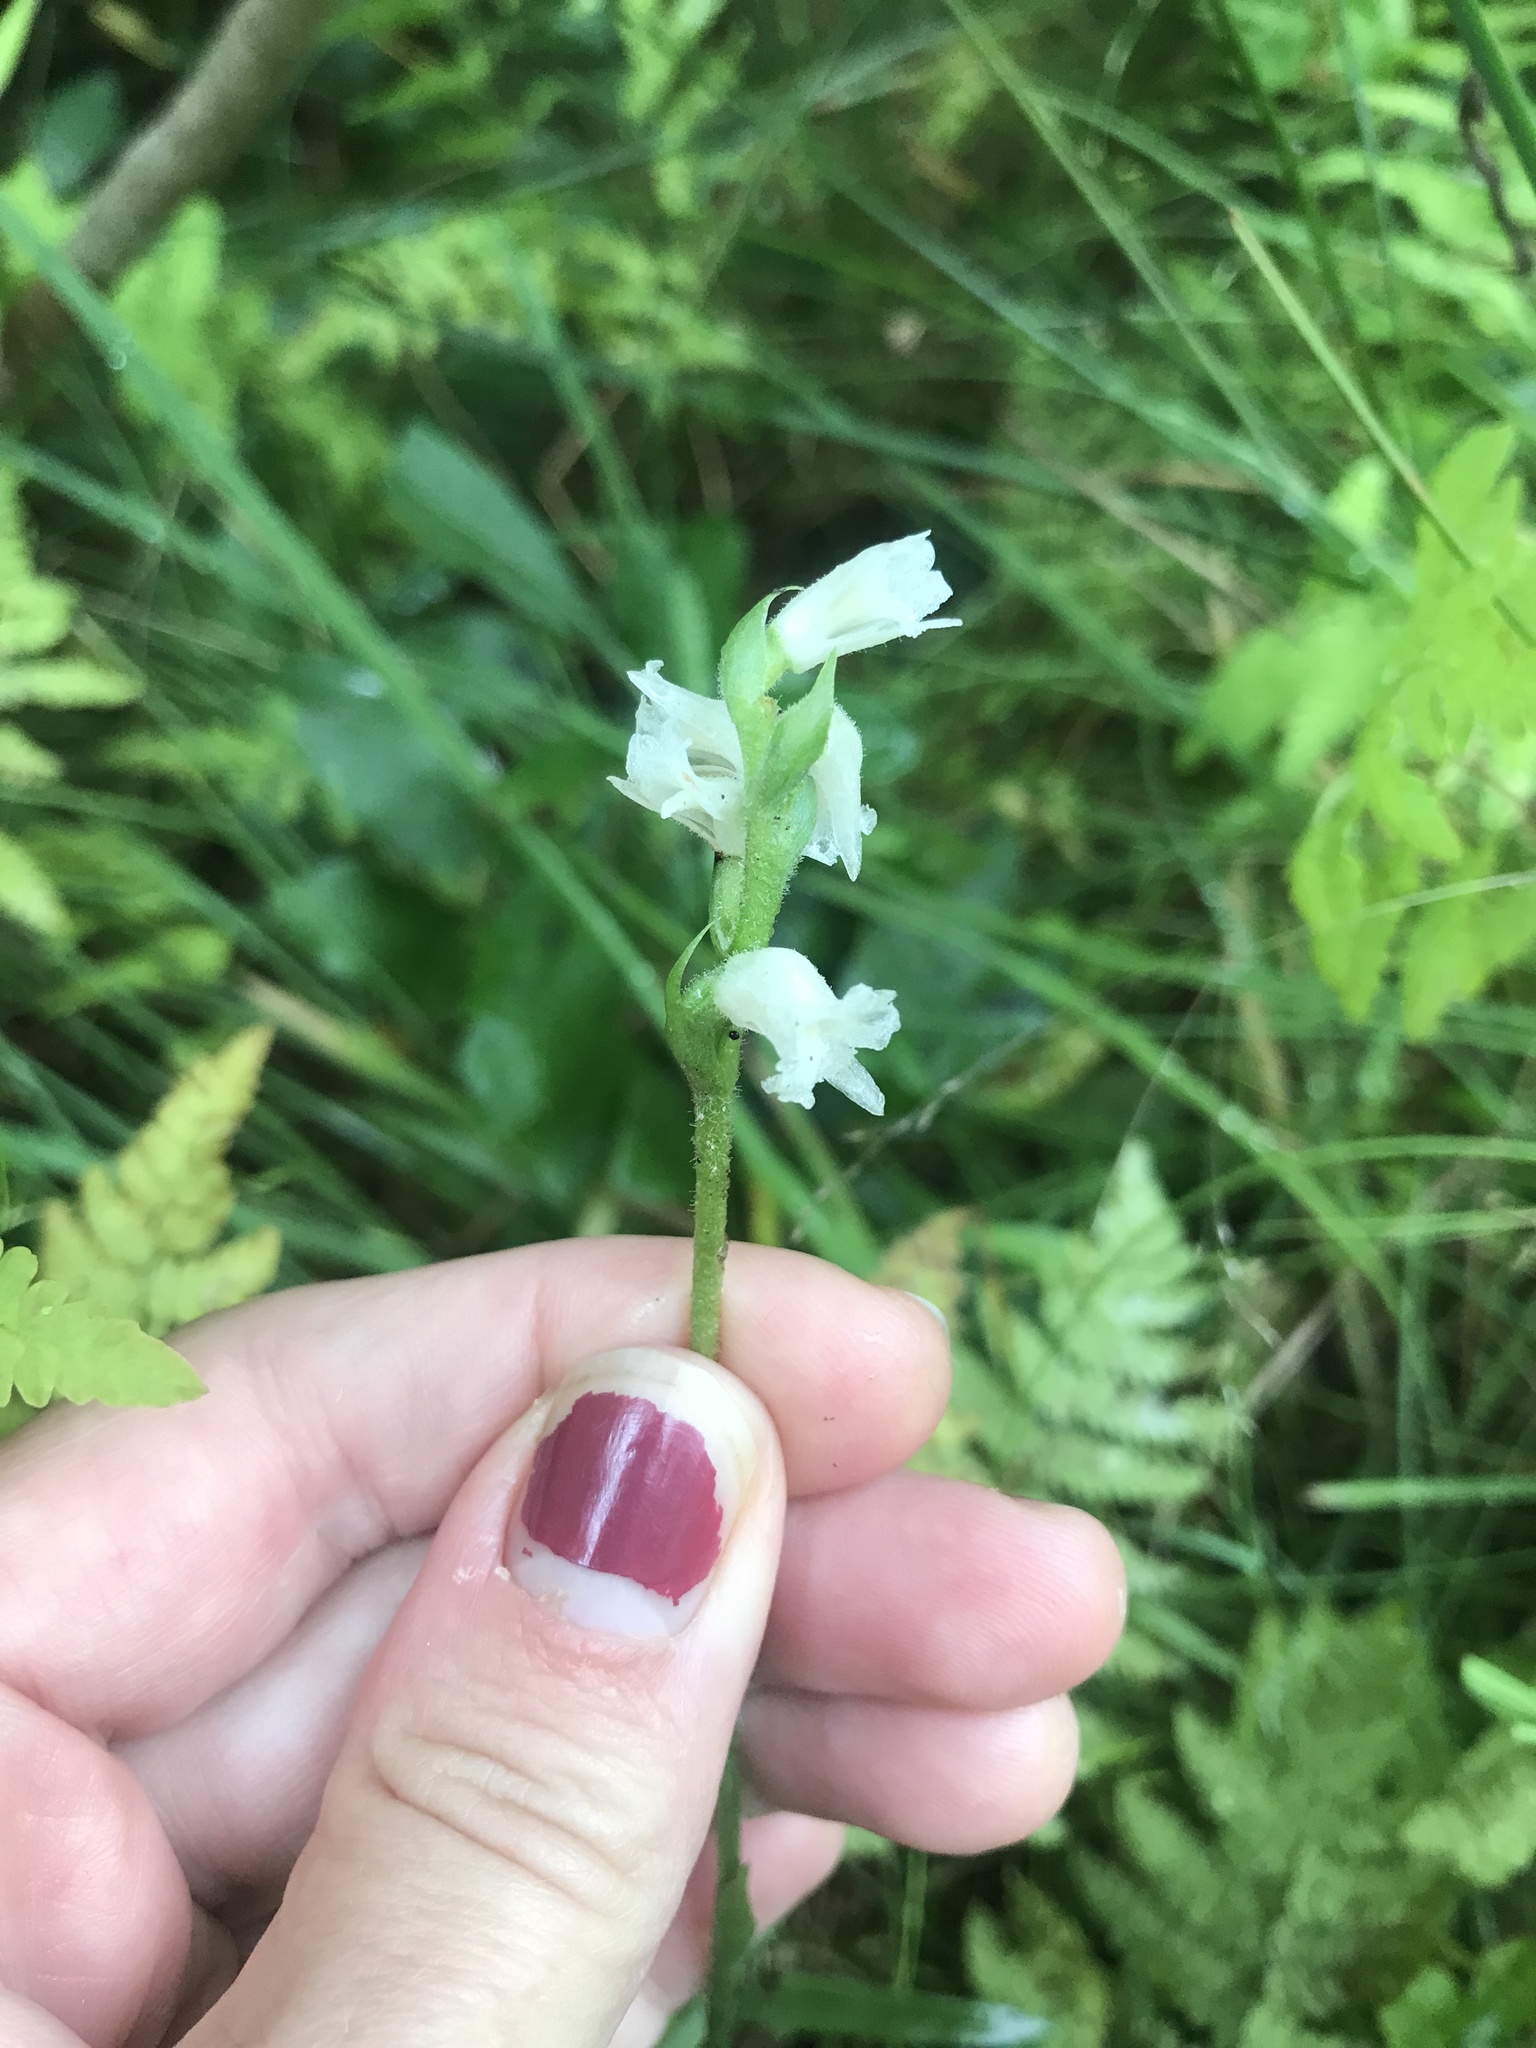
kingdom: Plantae
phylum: Tracheophyta
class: Liliopsida
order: Asparagales
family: Orchidaceae
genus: Spiranthes
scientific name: Spiranthes arcisepala
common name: Appalachian ladies'-tresses
